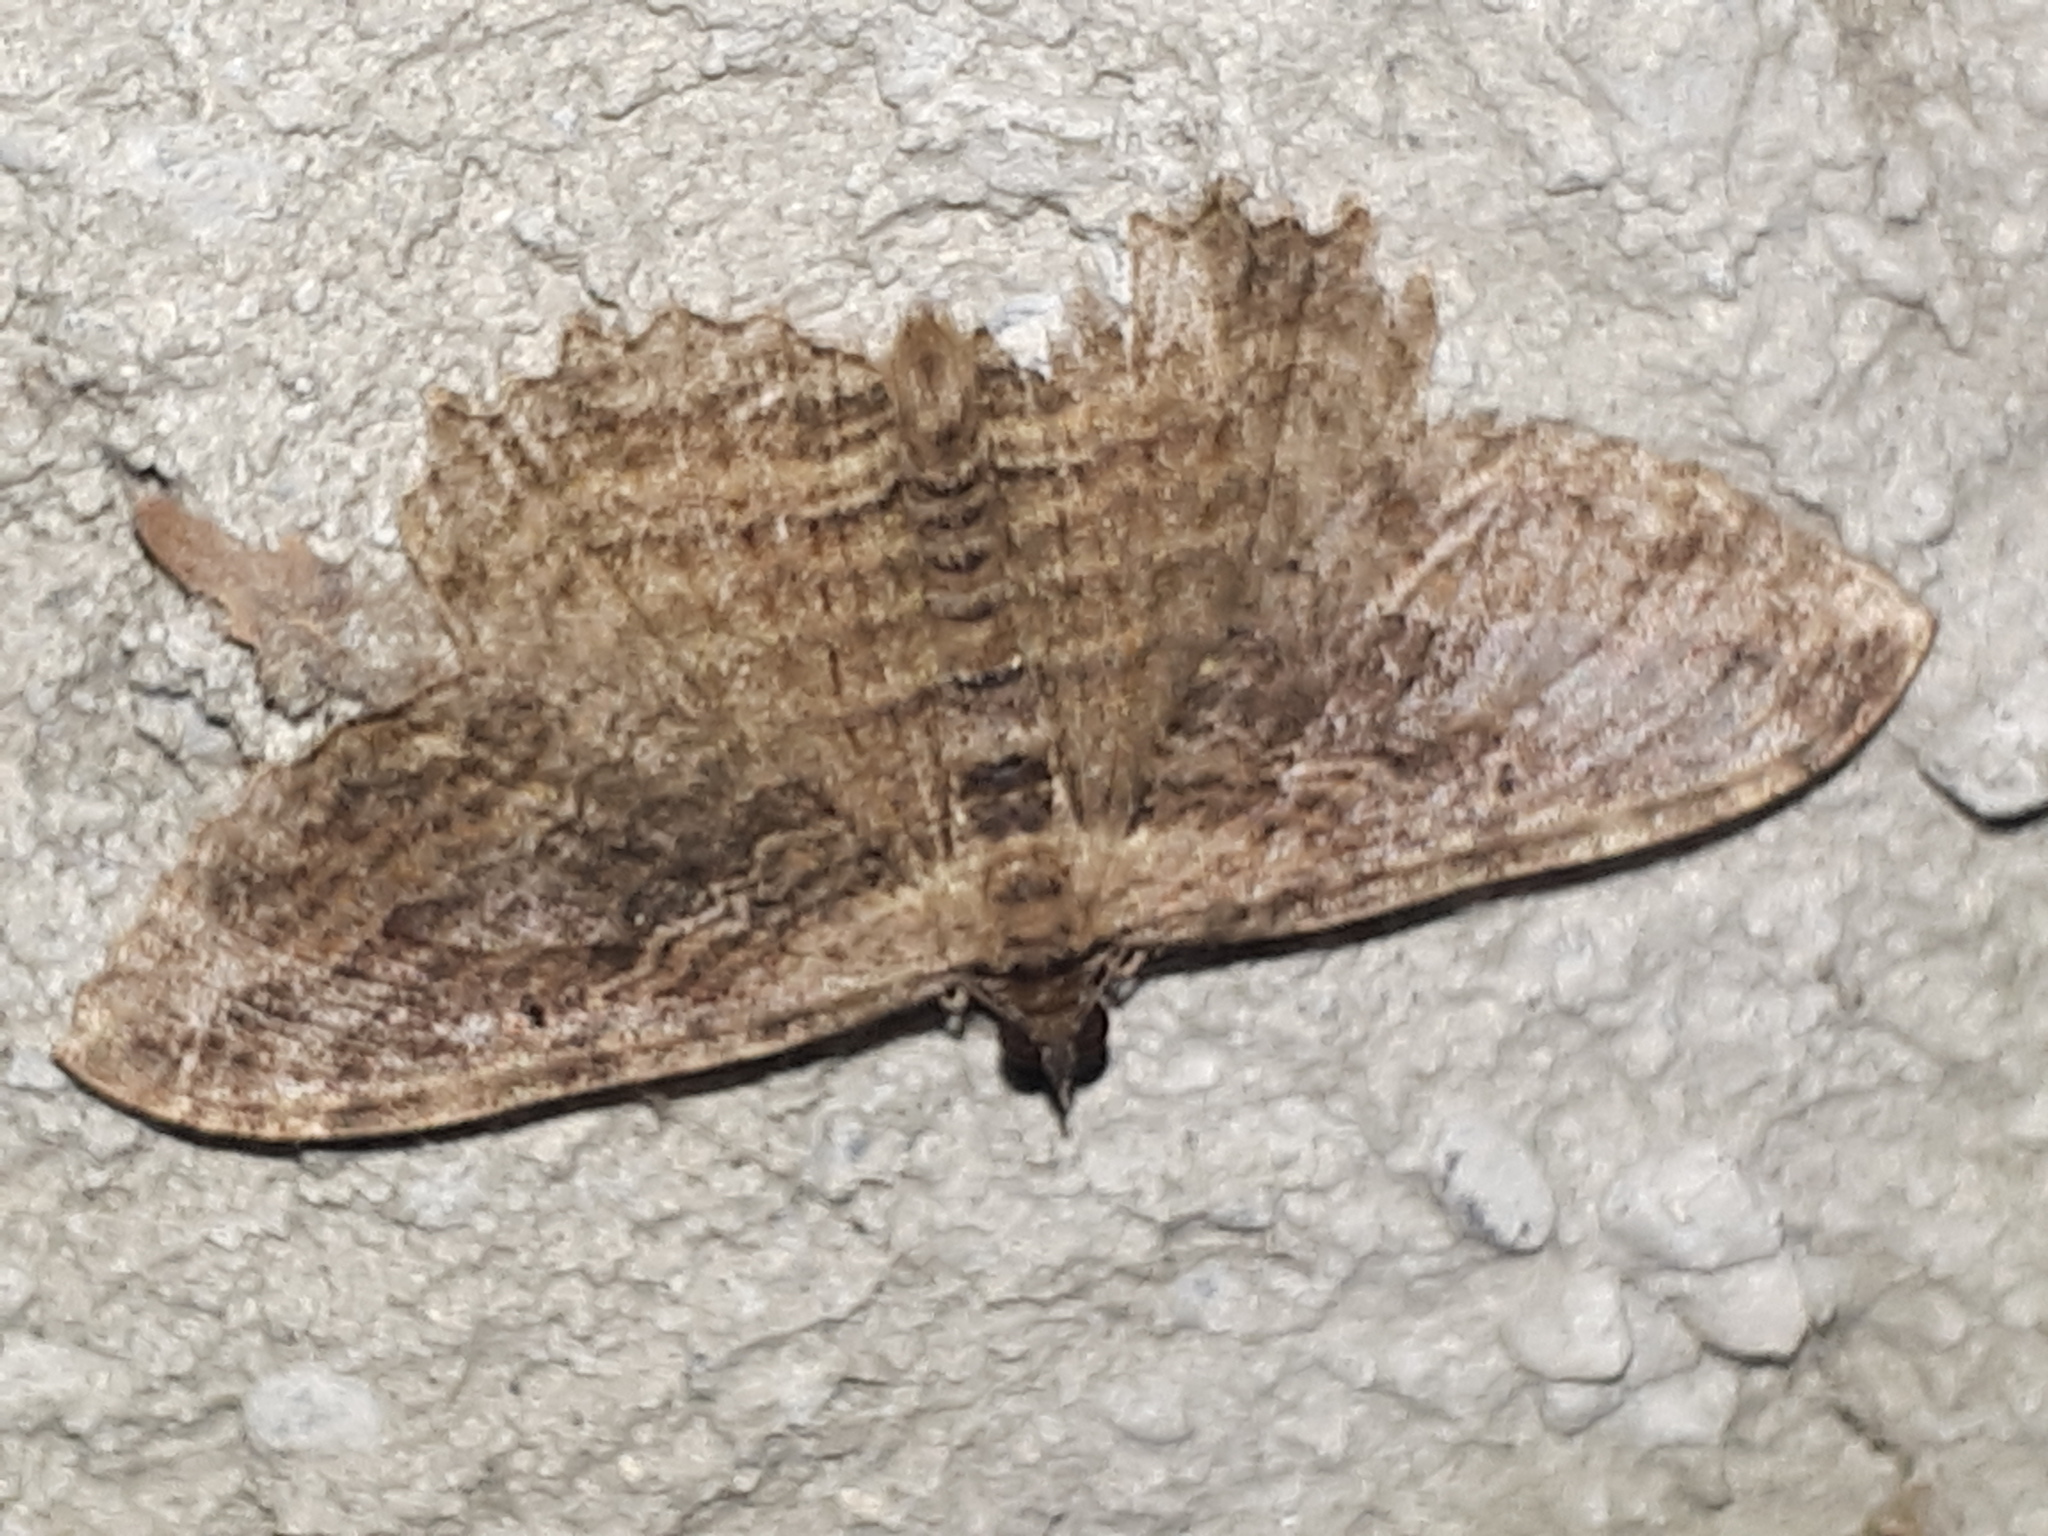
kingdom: Animalia
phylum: Arthropoda
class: Insecta
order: Lepidoptera
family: Geometridae
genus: Philereme
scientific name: Philereme transversata
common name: Dark umber
